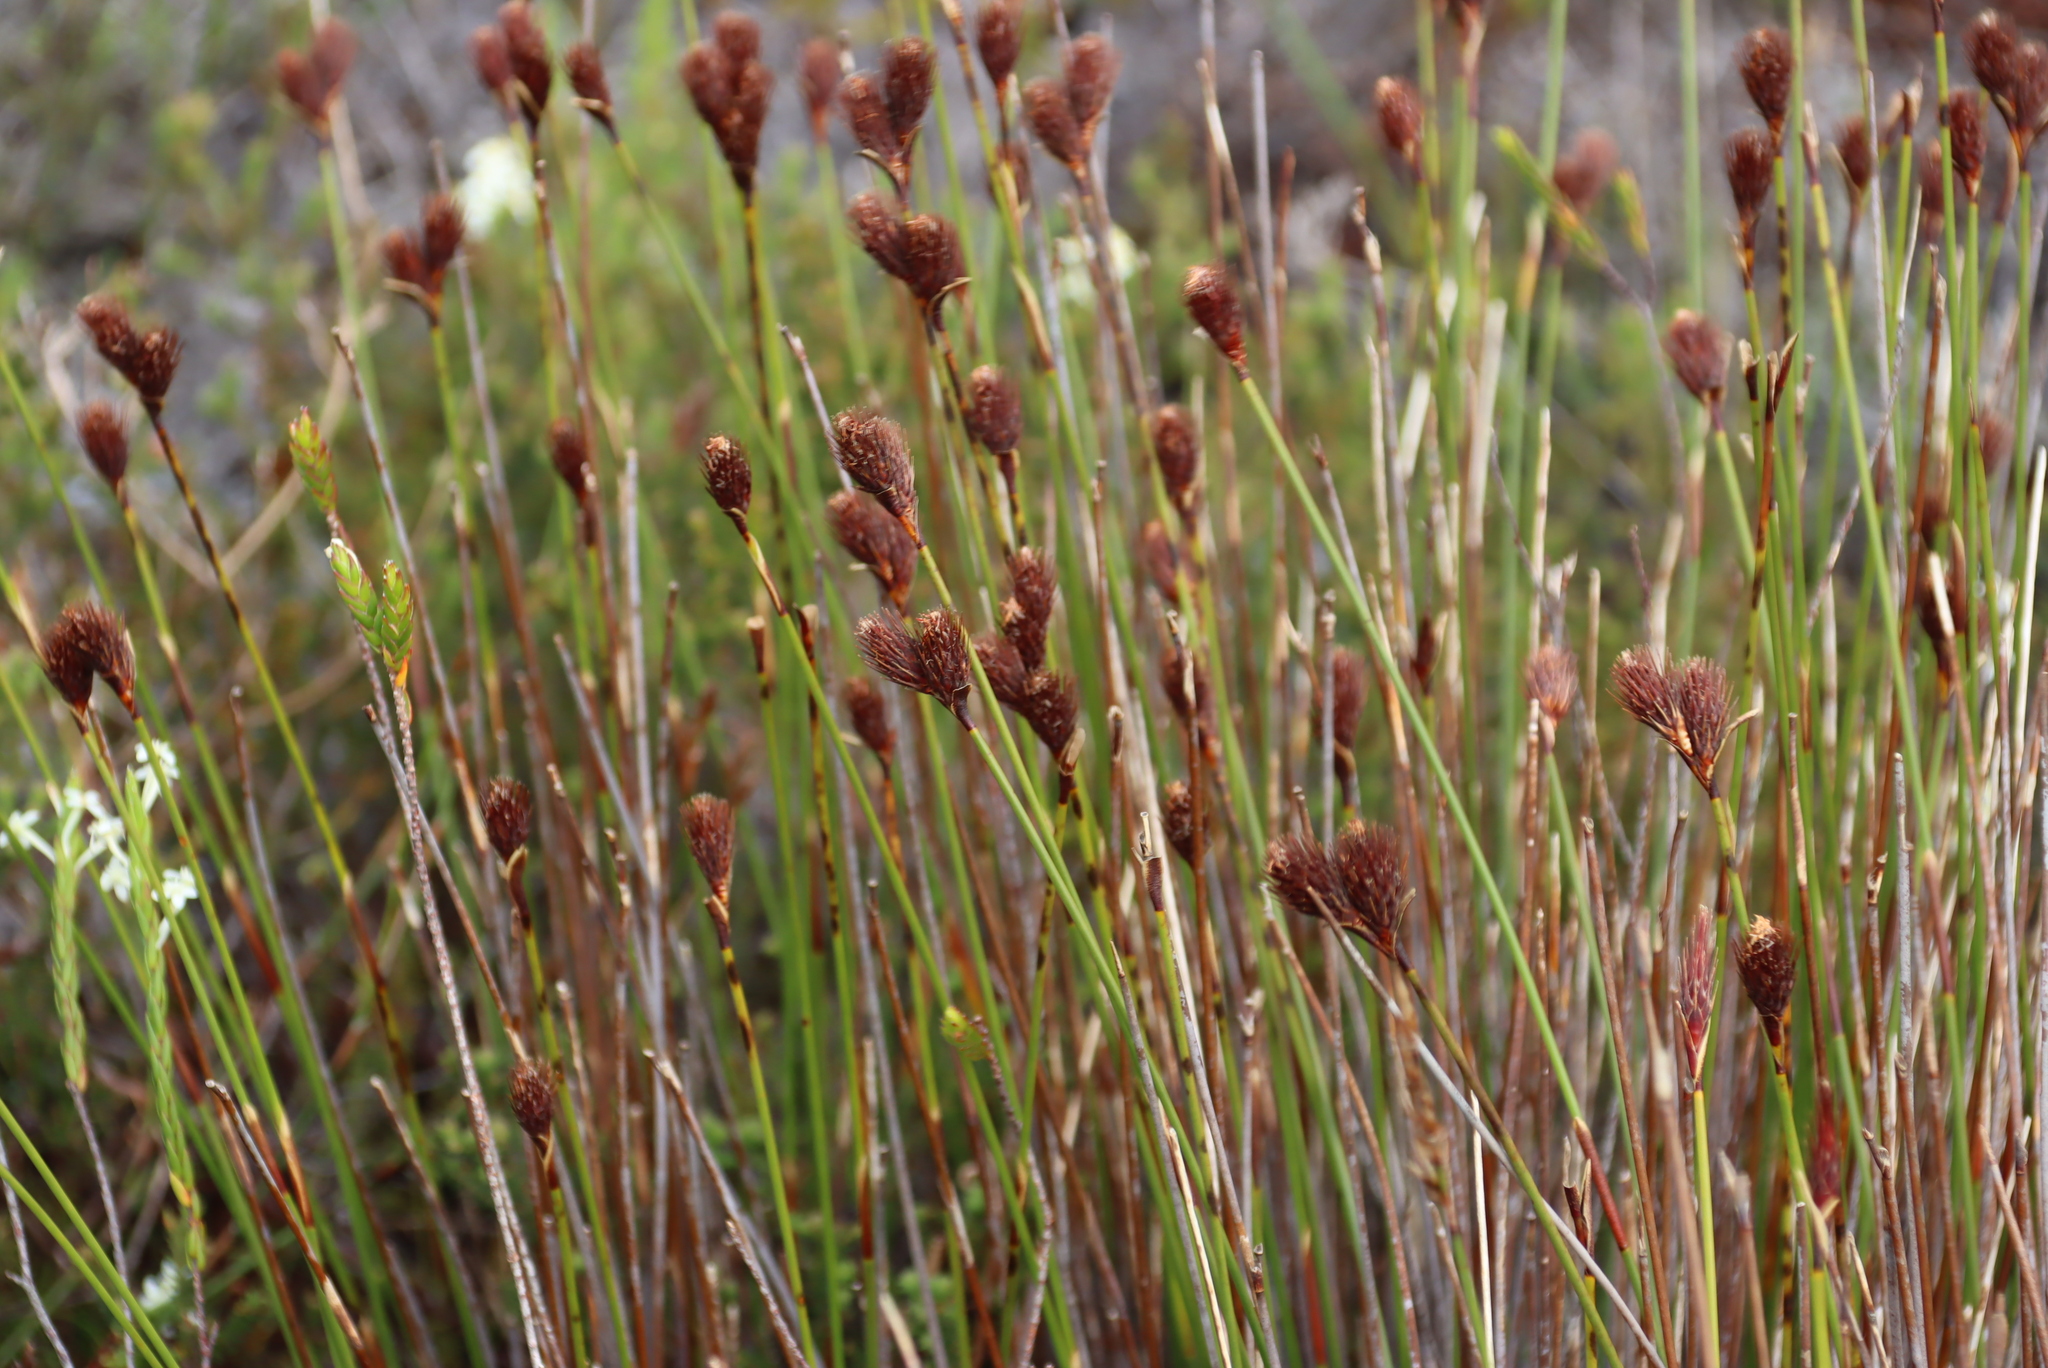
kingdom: Plantae
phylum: Tracheophyta
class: Liliopsida
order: Poales
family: Restionaceae
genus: Hypodiscus
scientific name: Hypodiscus aristatus
